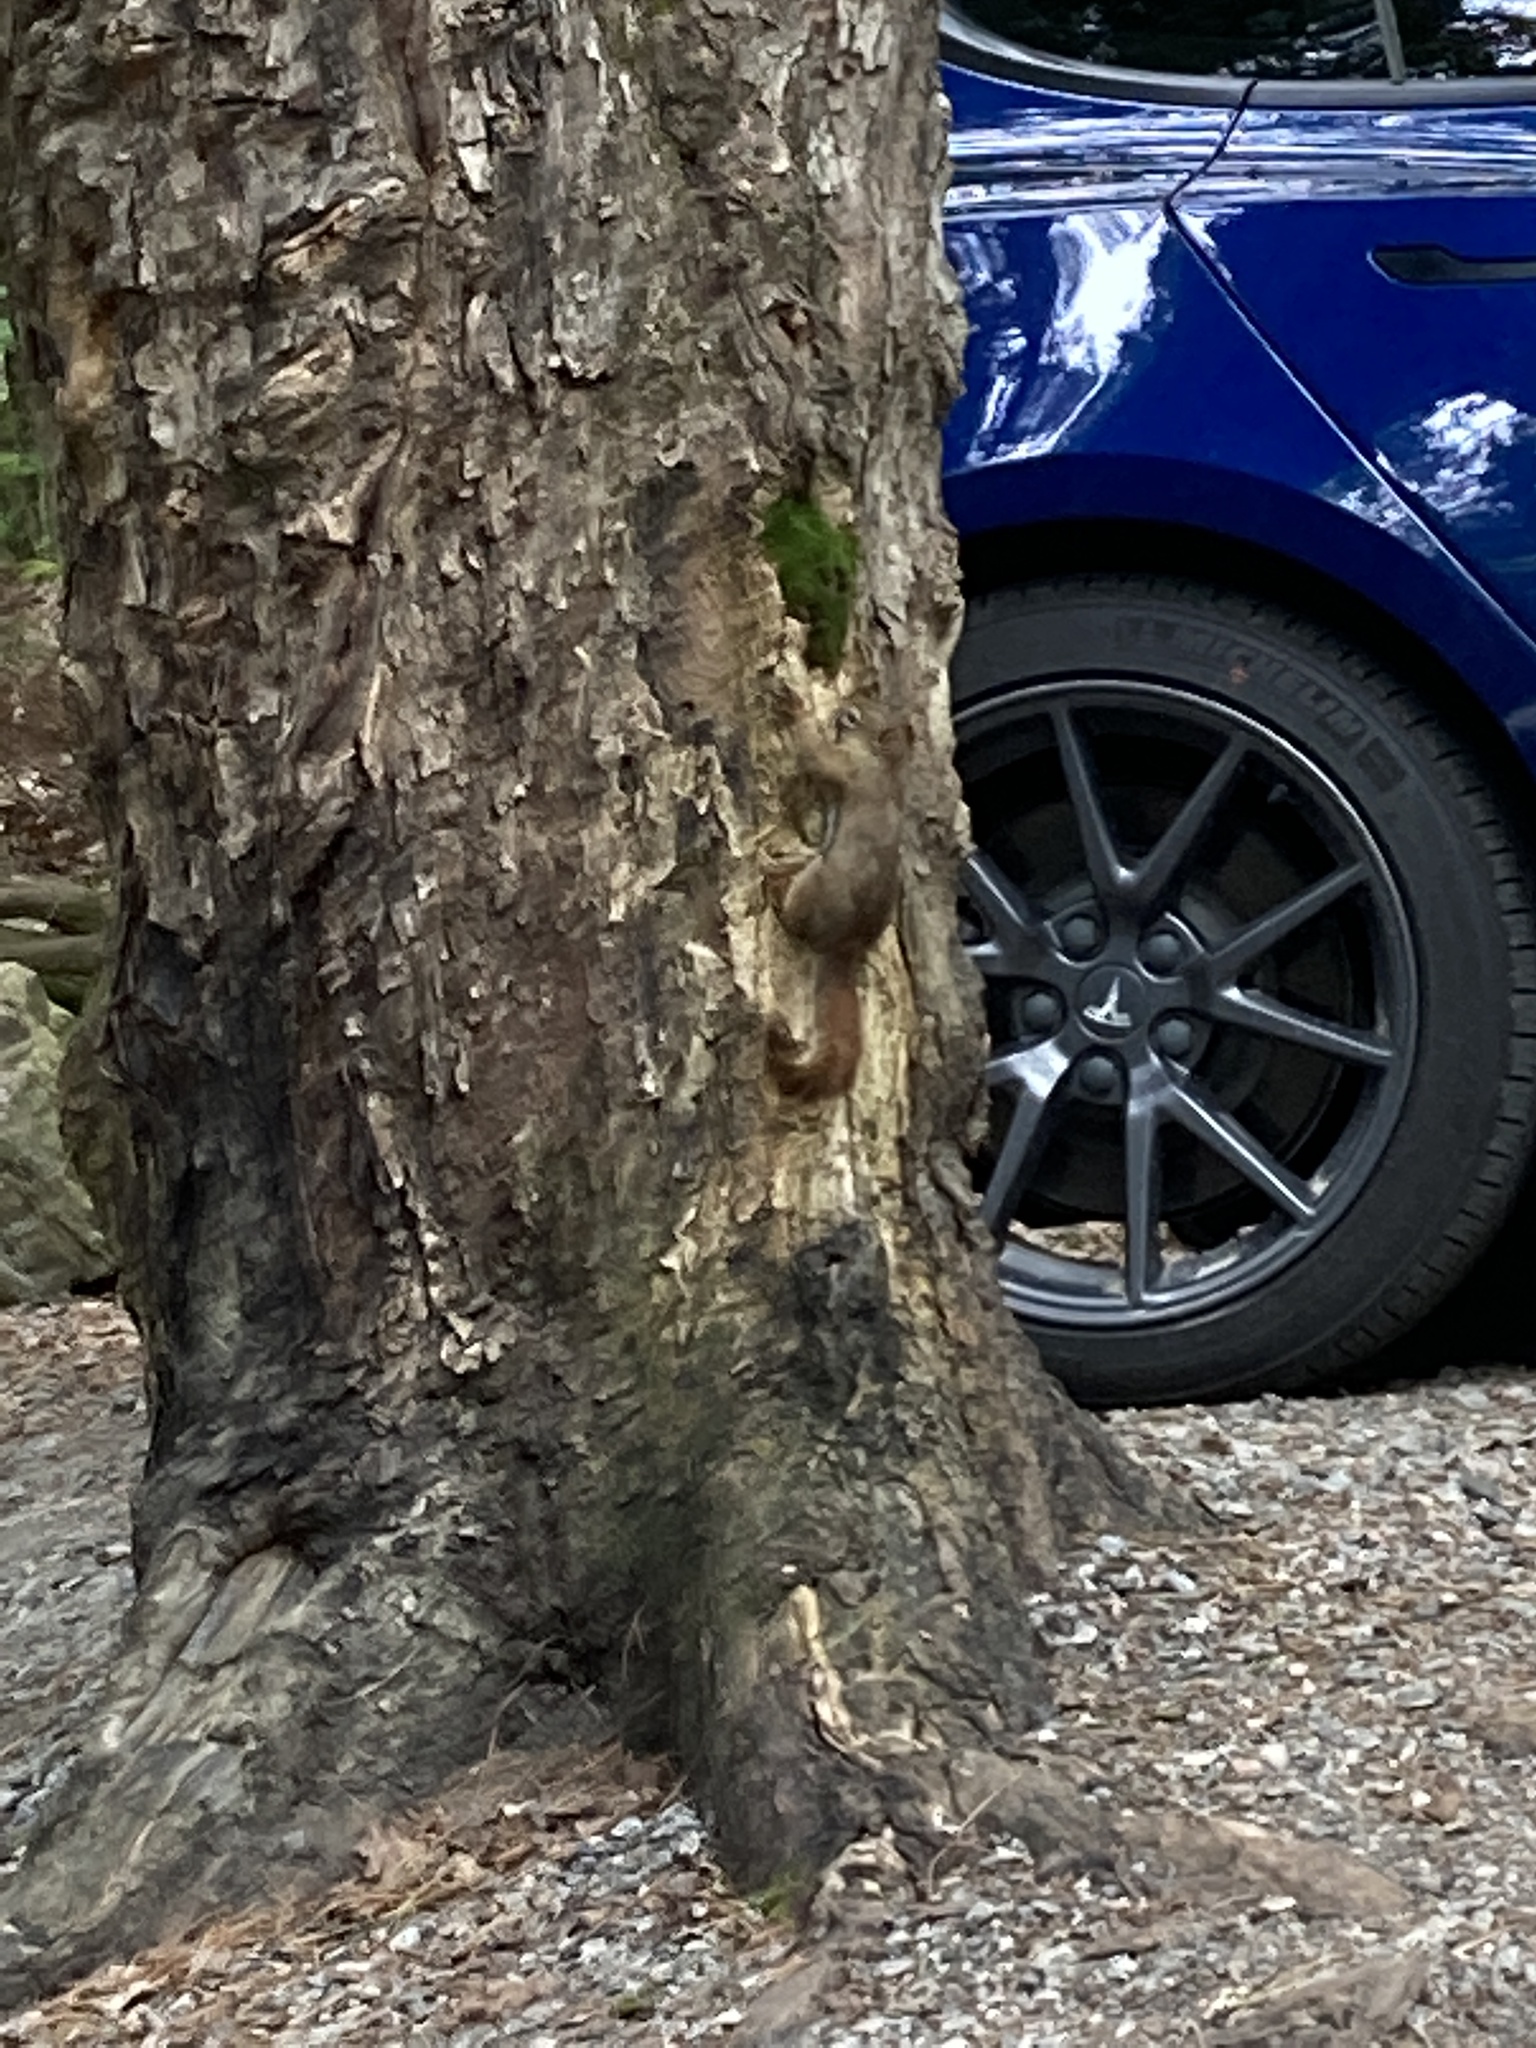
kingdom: Animalia
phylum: Chordata
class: Mammalia
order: Rodentia
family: Sciuridae
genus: Tamiasciurus
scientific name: Tamiasciurus hudsonicus
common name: Red squirrel
